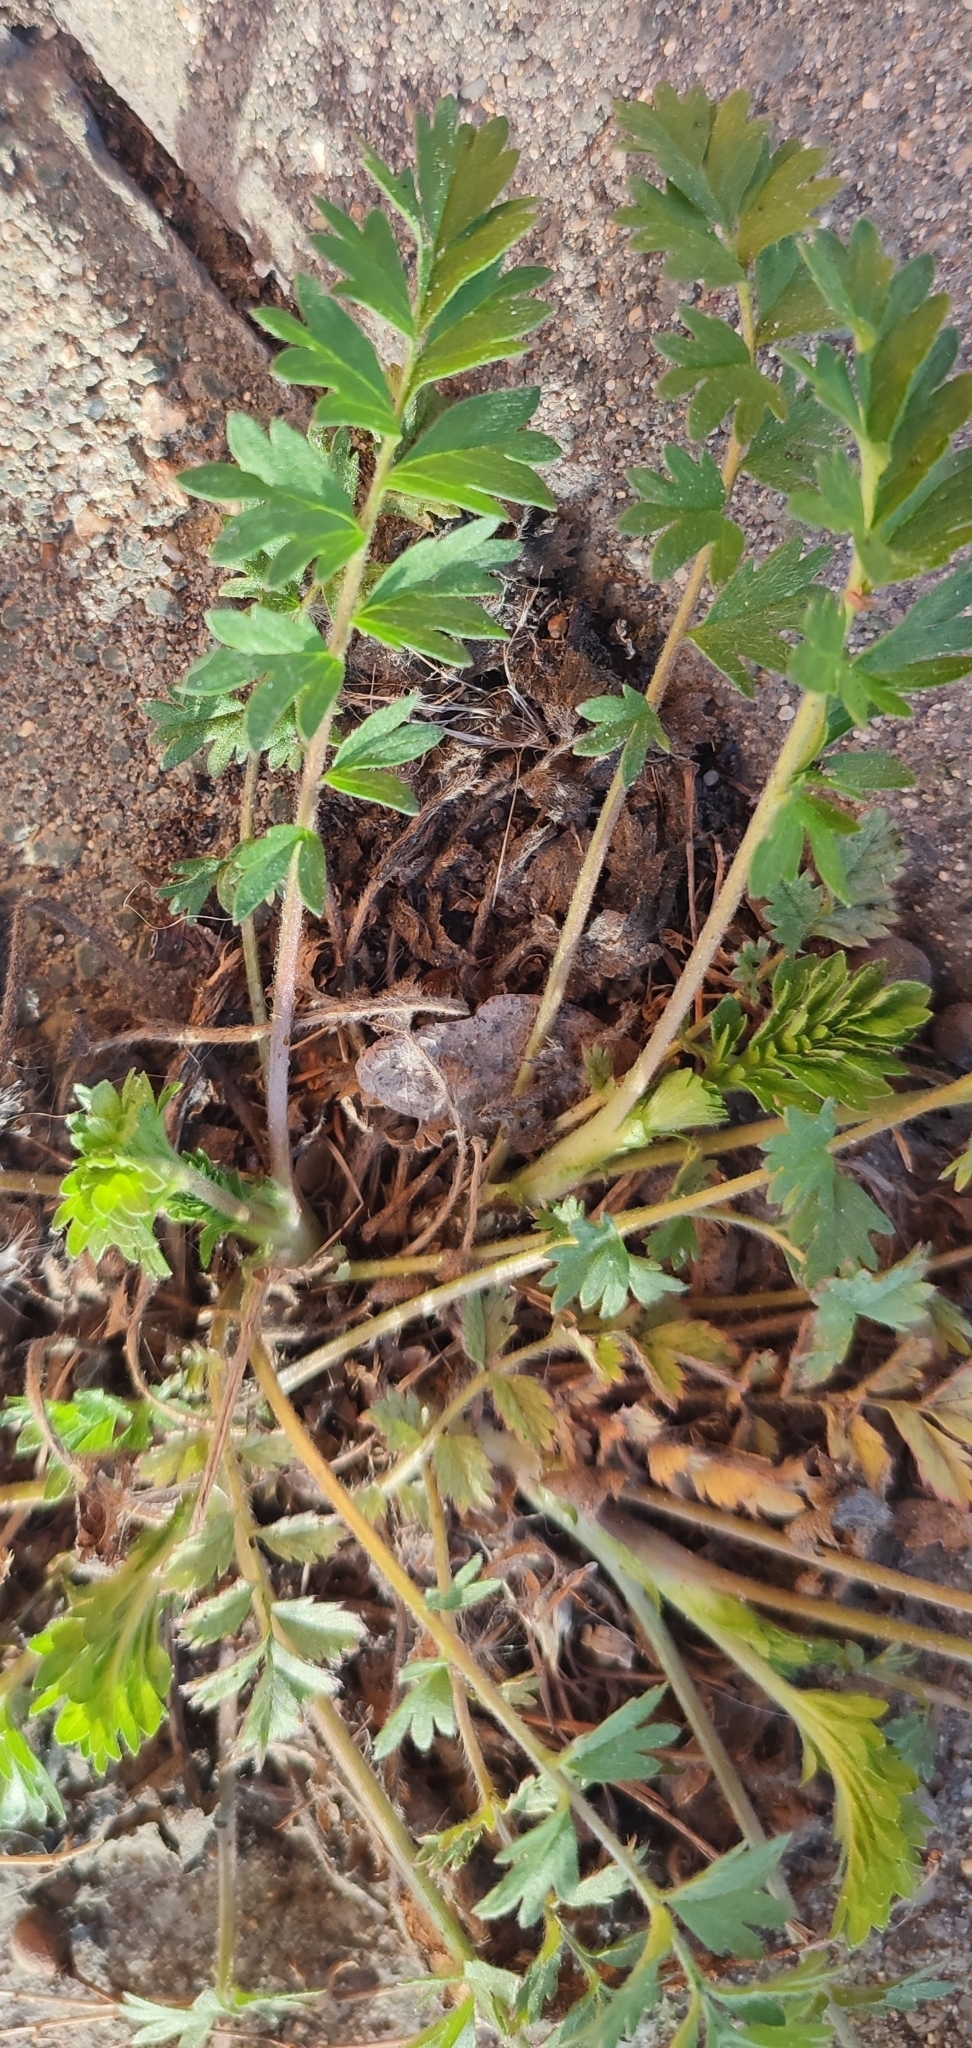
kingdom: Plantae
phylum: Tracheophyta
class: Magnoliopsida
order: Rosales
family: Rosaceae
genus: Potentilla
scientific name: Potentilla supina
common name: Prostrate cinquefoil
